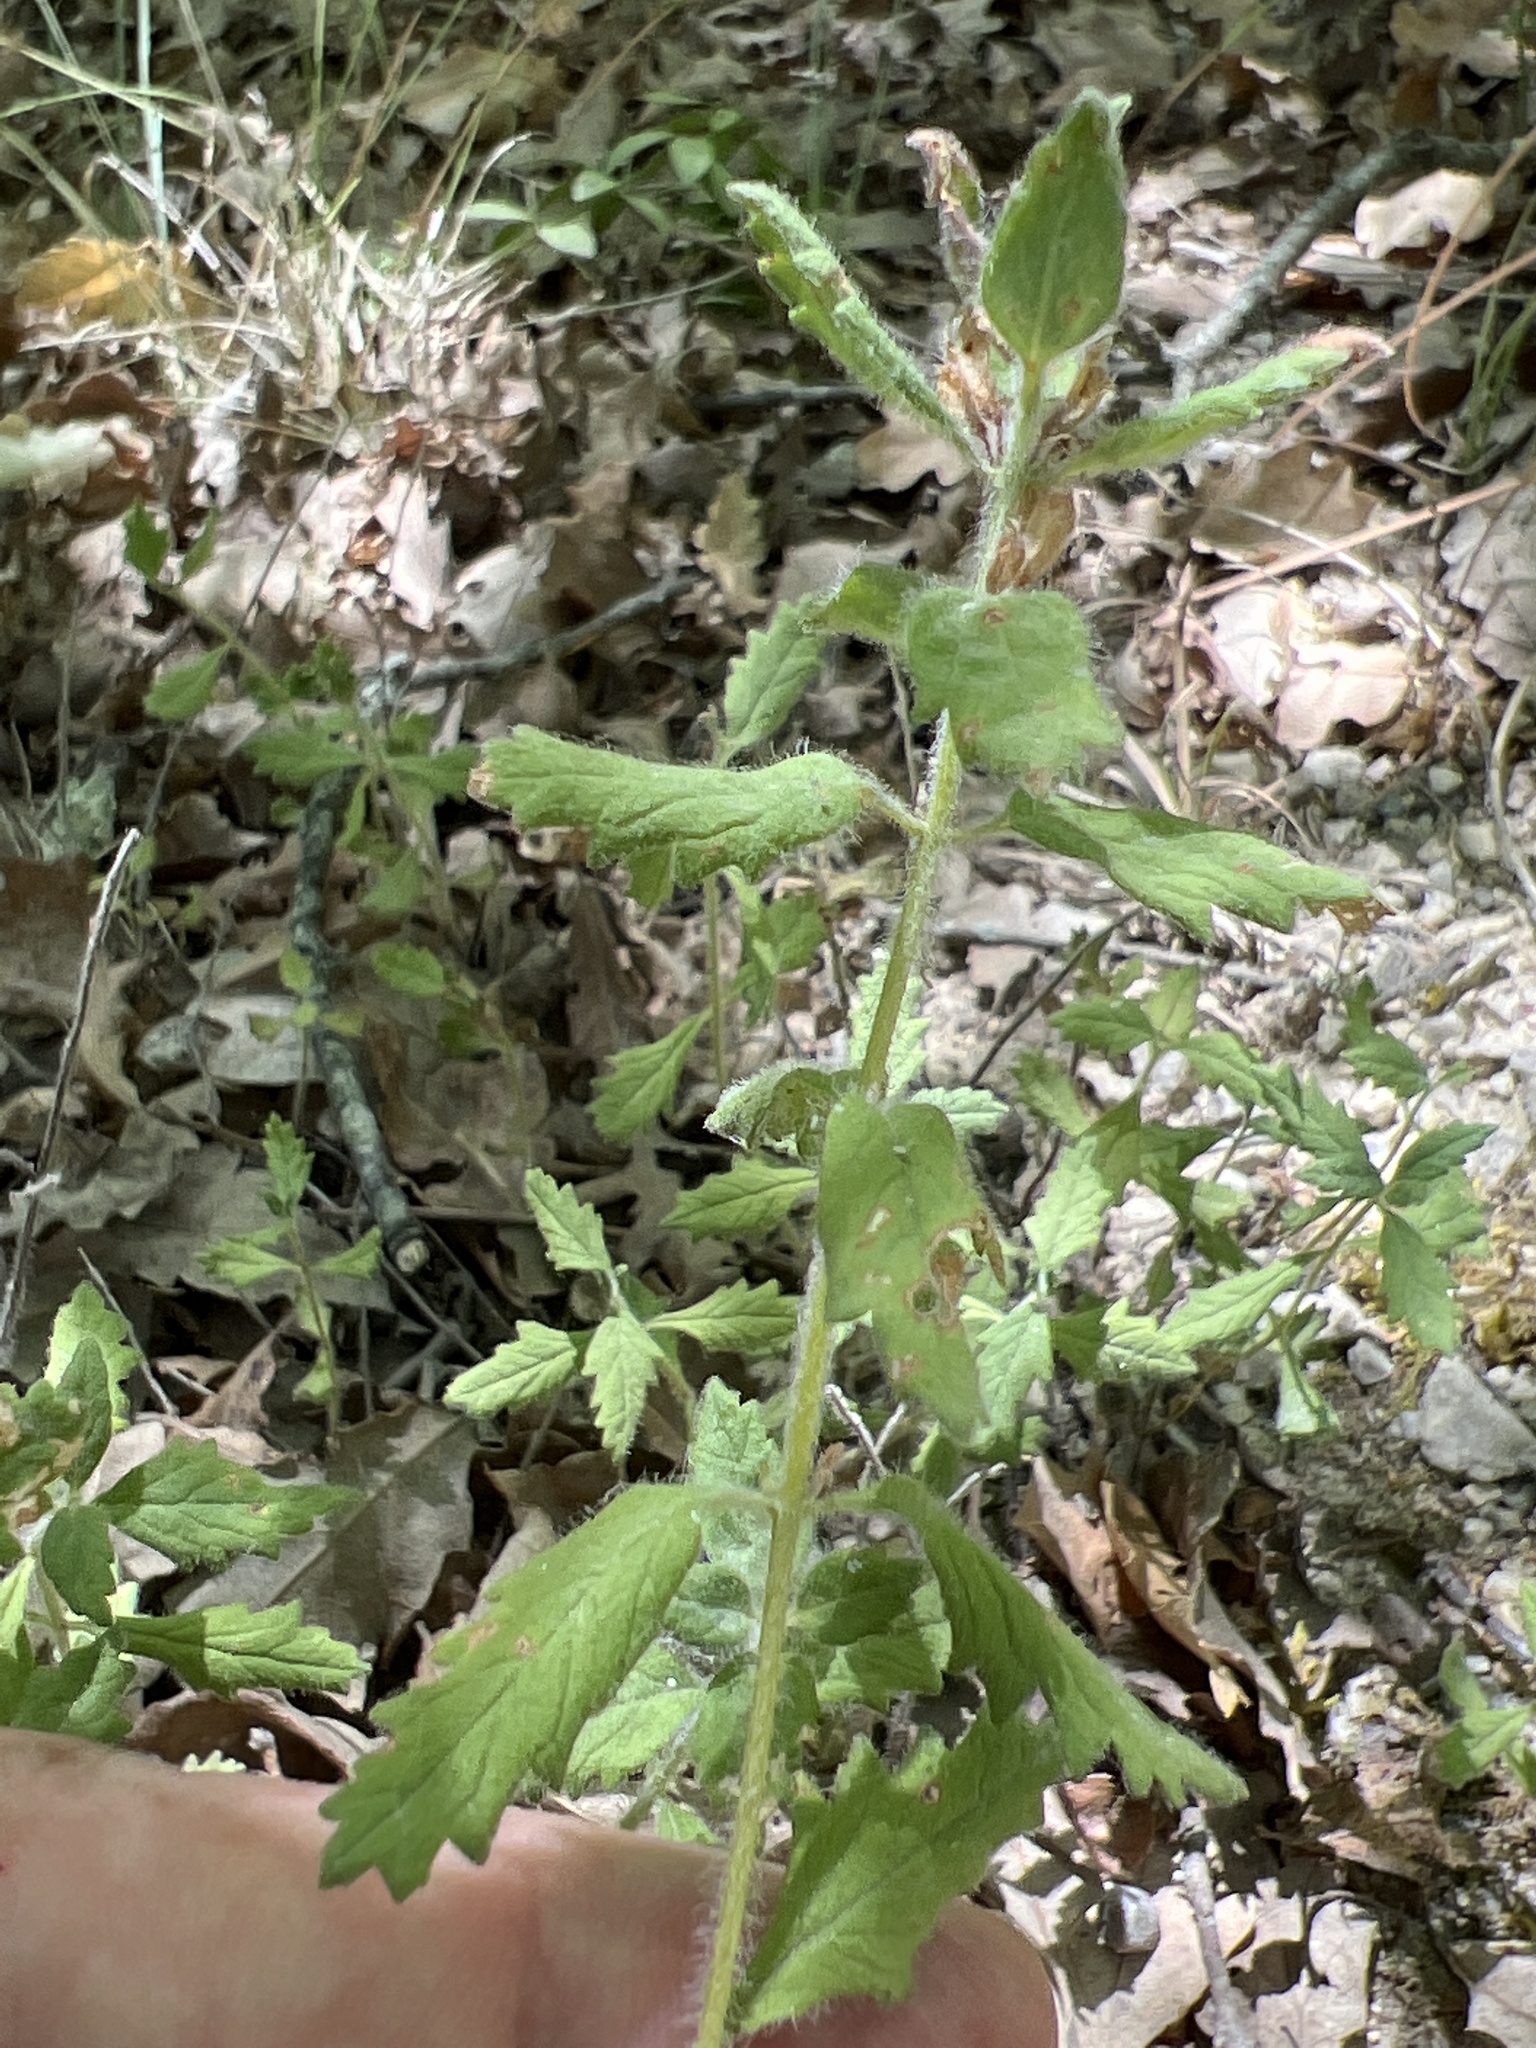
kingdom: Plantae
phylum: Tracheophyta
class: Magnoliopsida
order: Lamiales
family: Lamiaceae
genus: Teucrium
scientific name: Teucrium chamaedrys
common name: Wall germander
